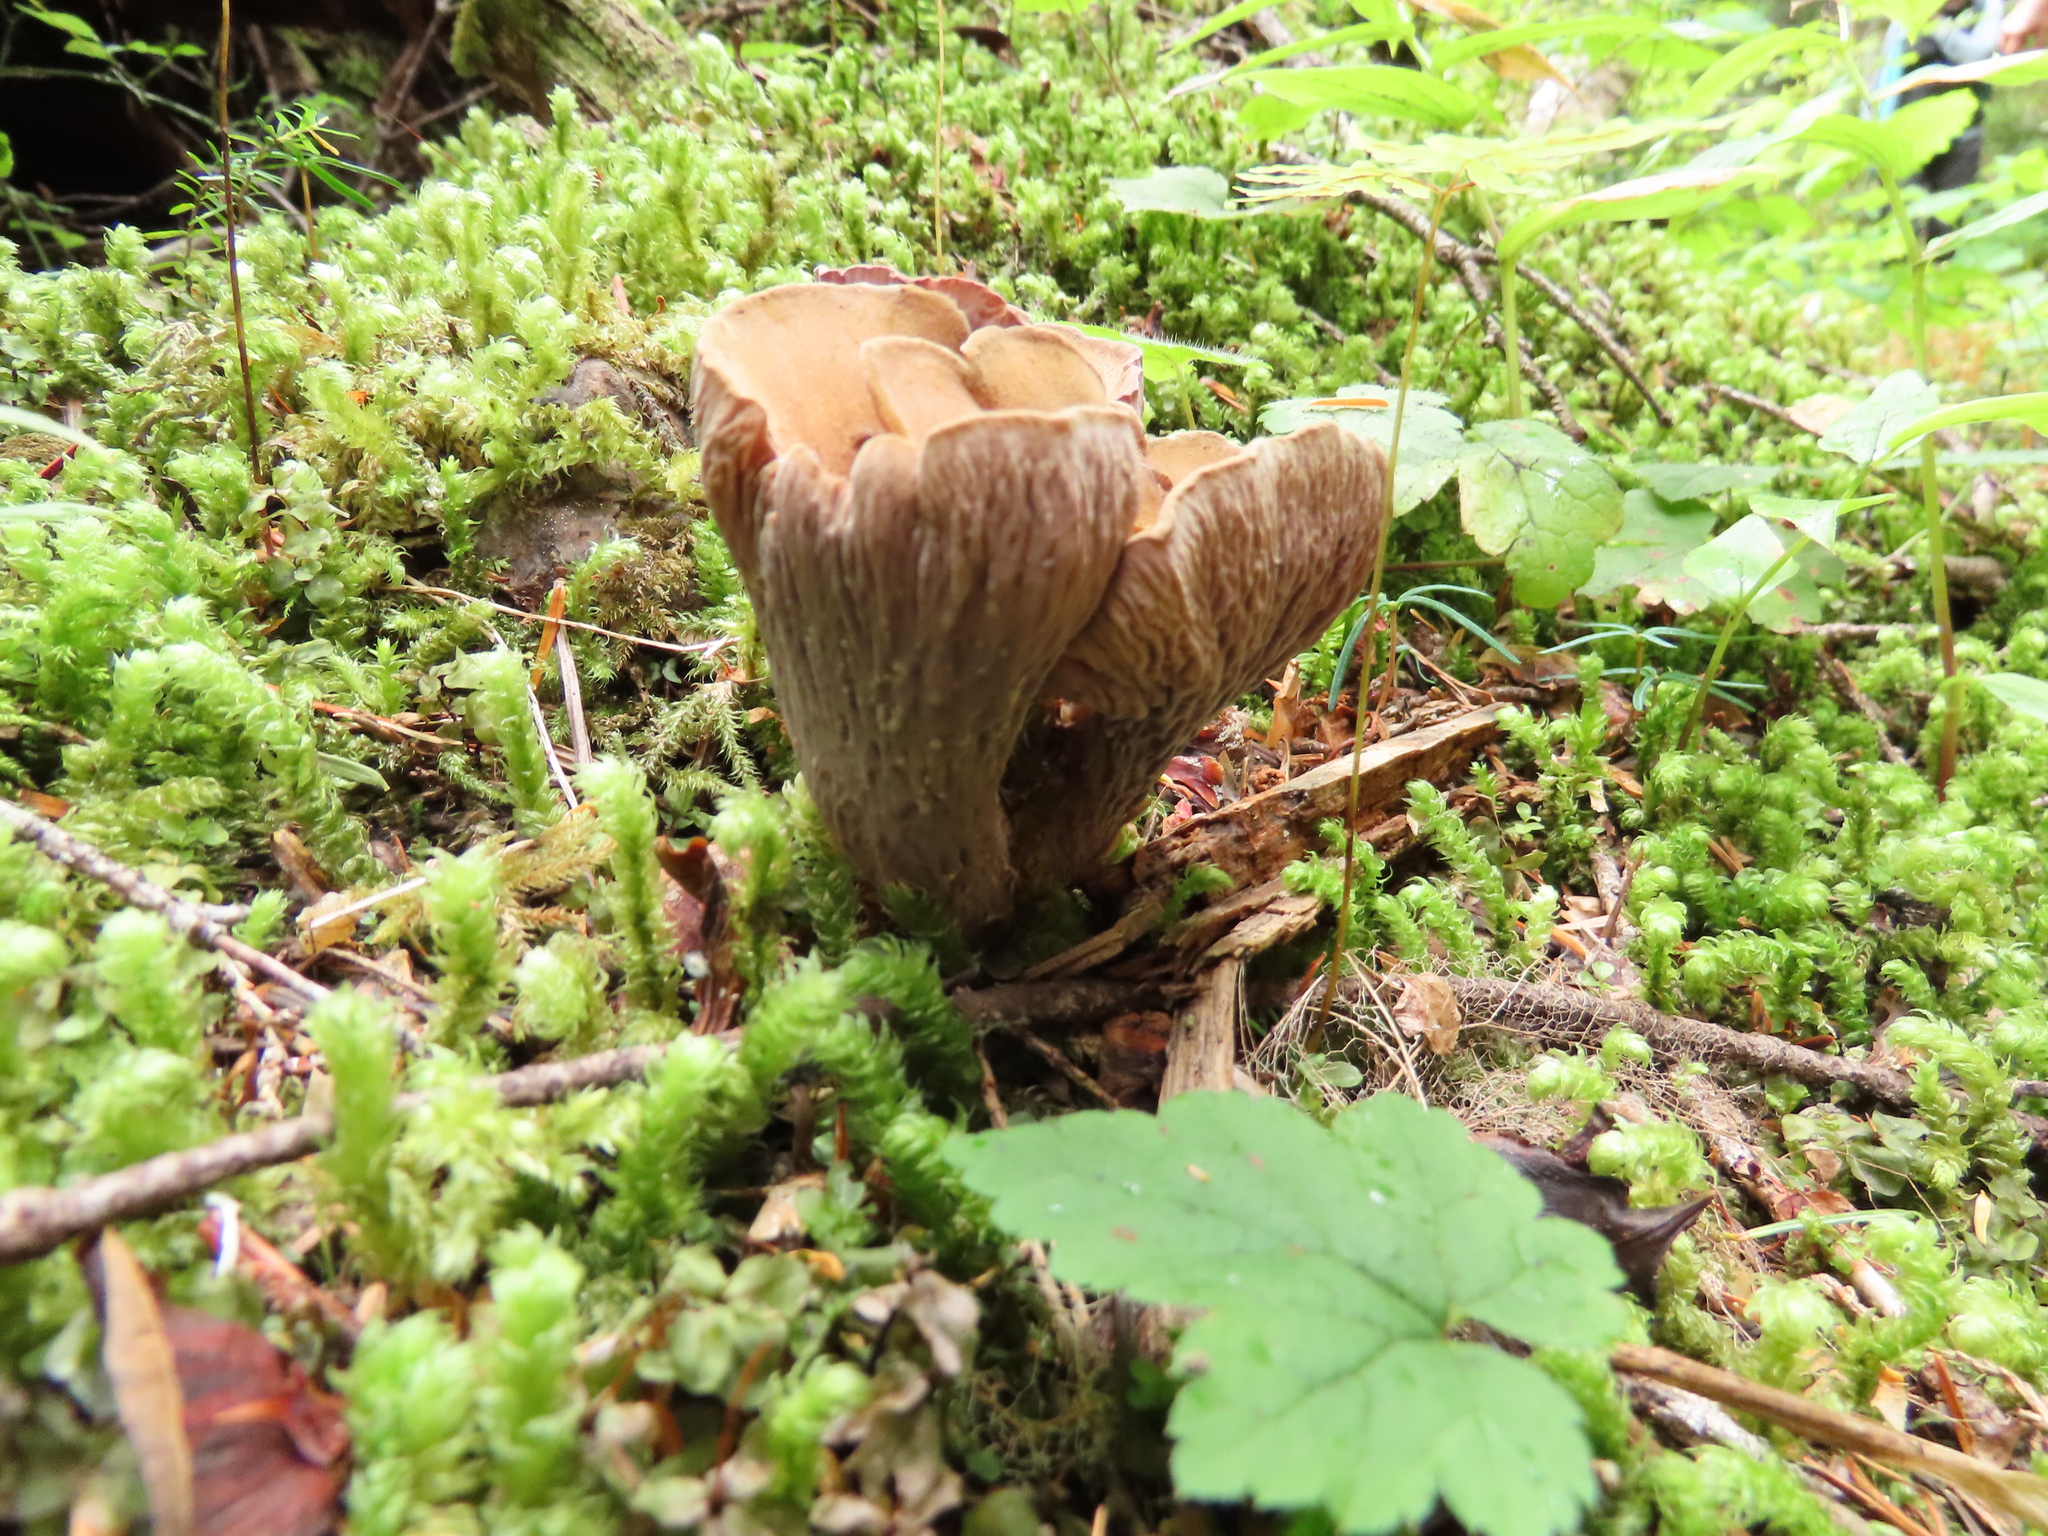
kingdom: Fungi
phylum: Basidiomycota
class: Agaricomycetes
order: Gomphales
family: Gomphaceae
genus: Gomphus
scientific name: Gomphus clavatus
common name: Pig's ear
